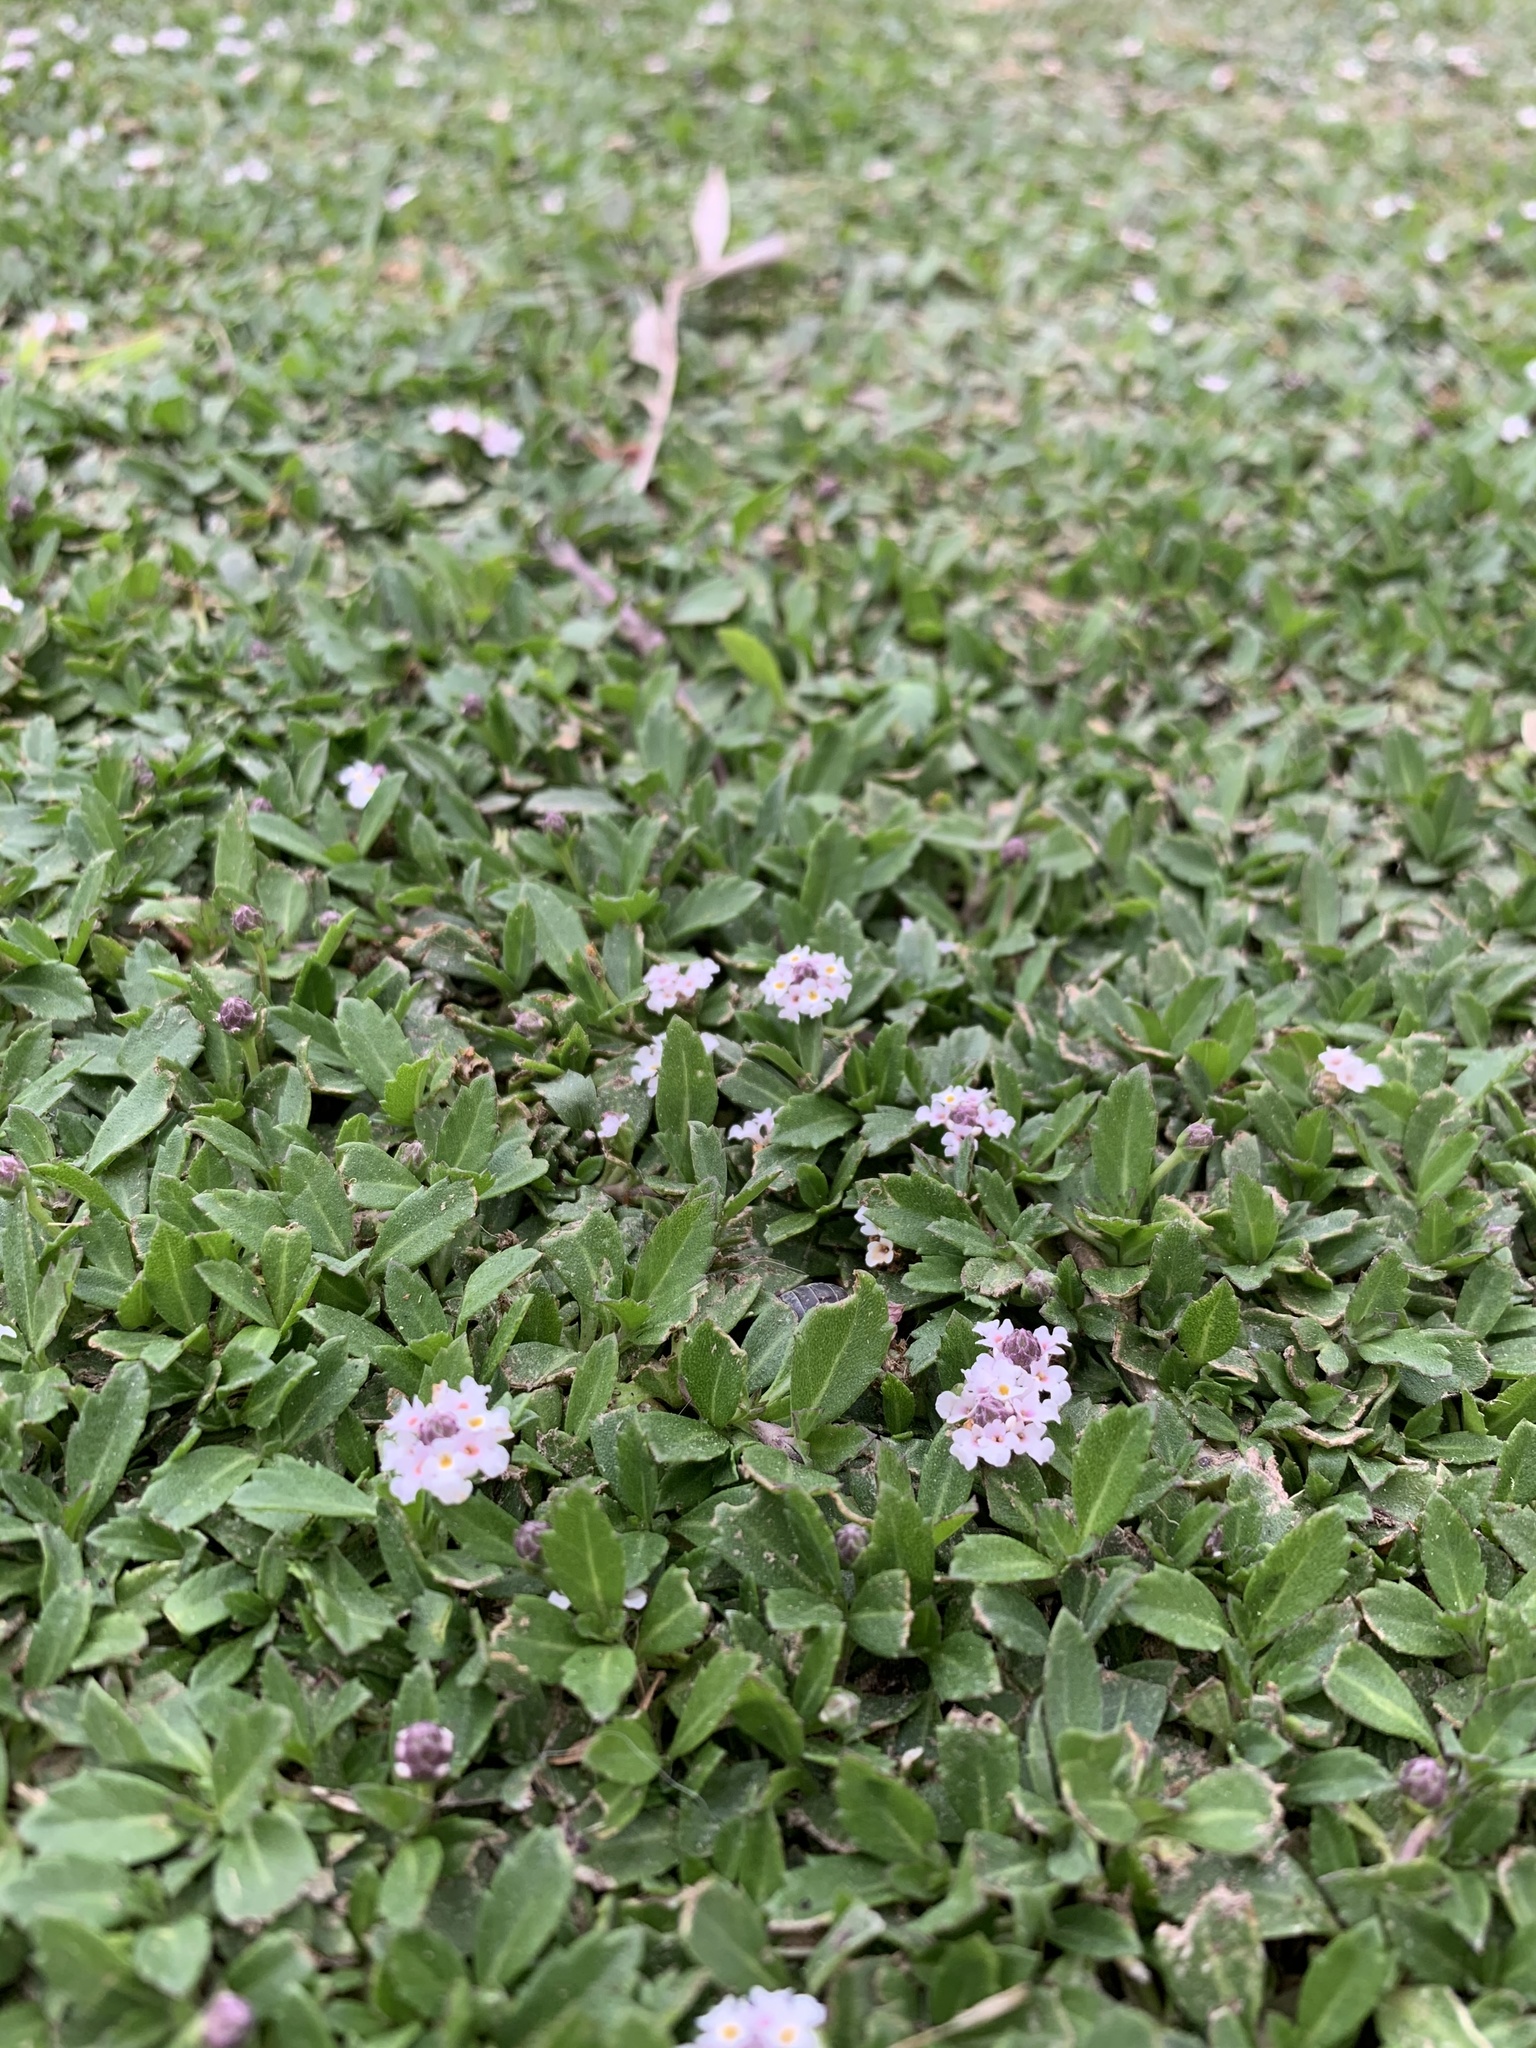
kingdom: Plantae
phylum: Tracheophyta
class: Magnoliopsida
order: Lamiales
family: Verbenaceae
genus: Phyla
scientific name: Phyla nodiflora
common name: Frogfruit
